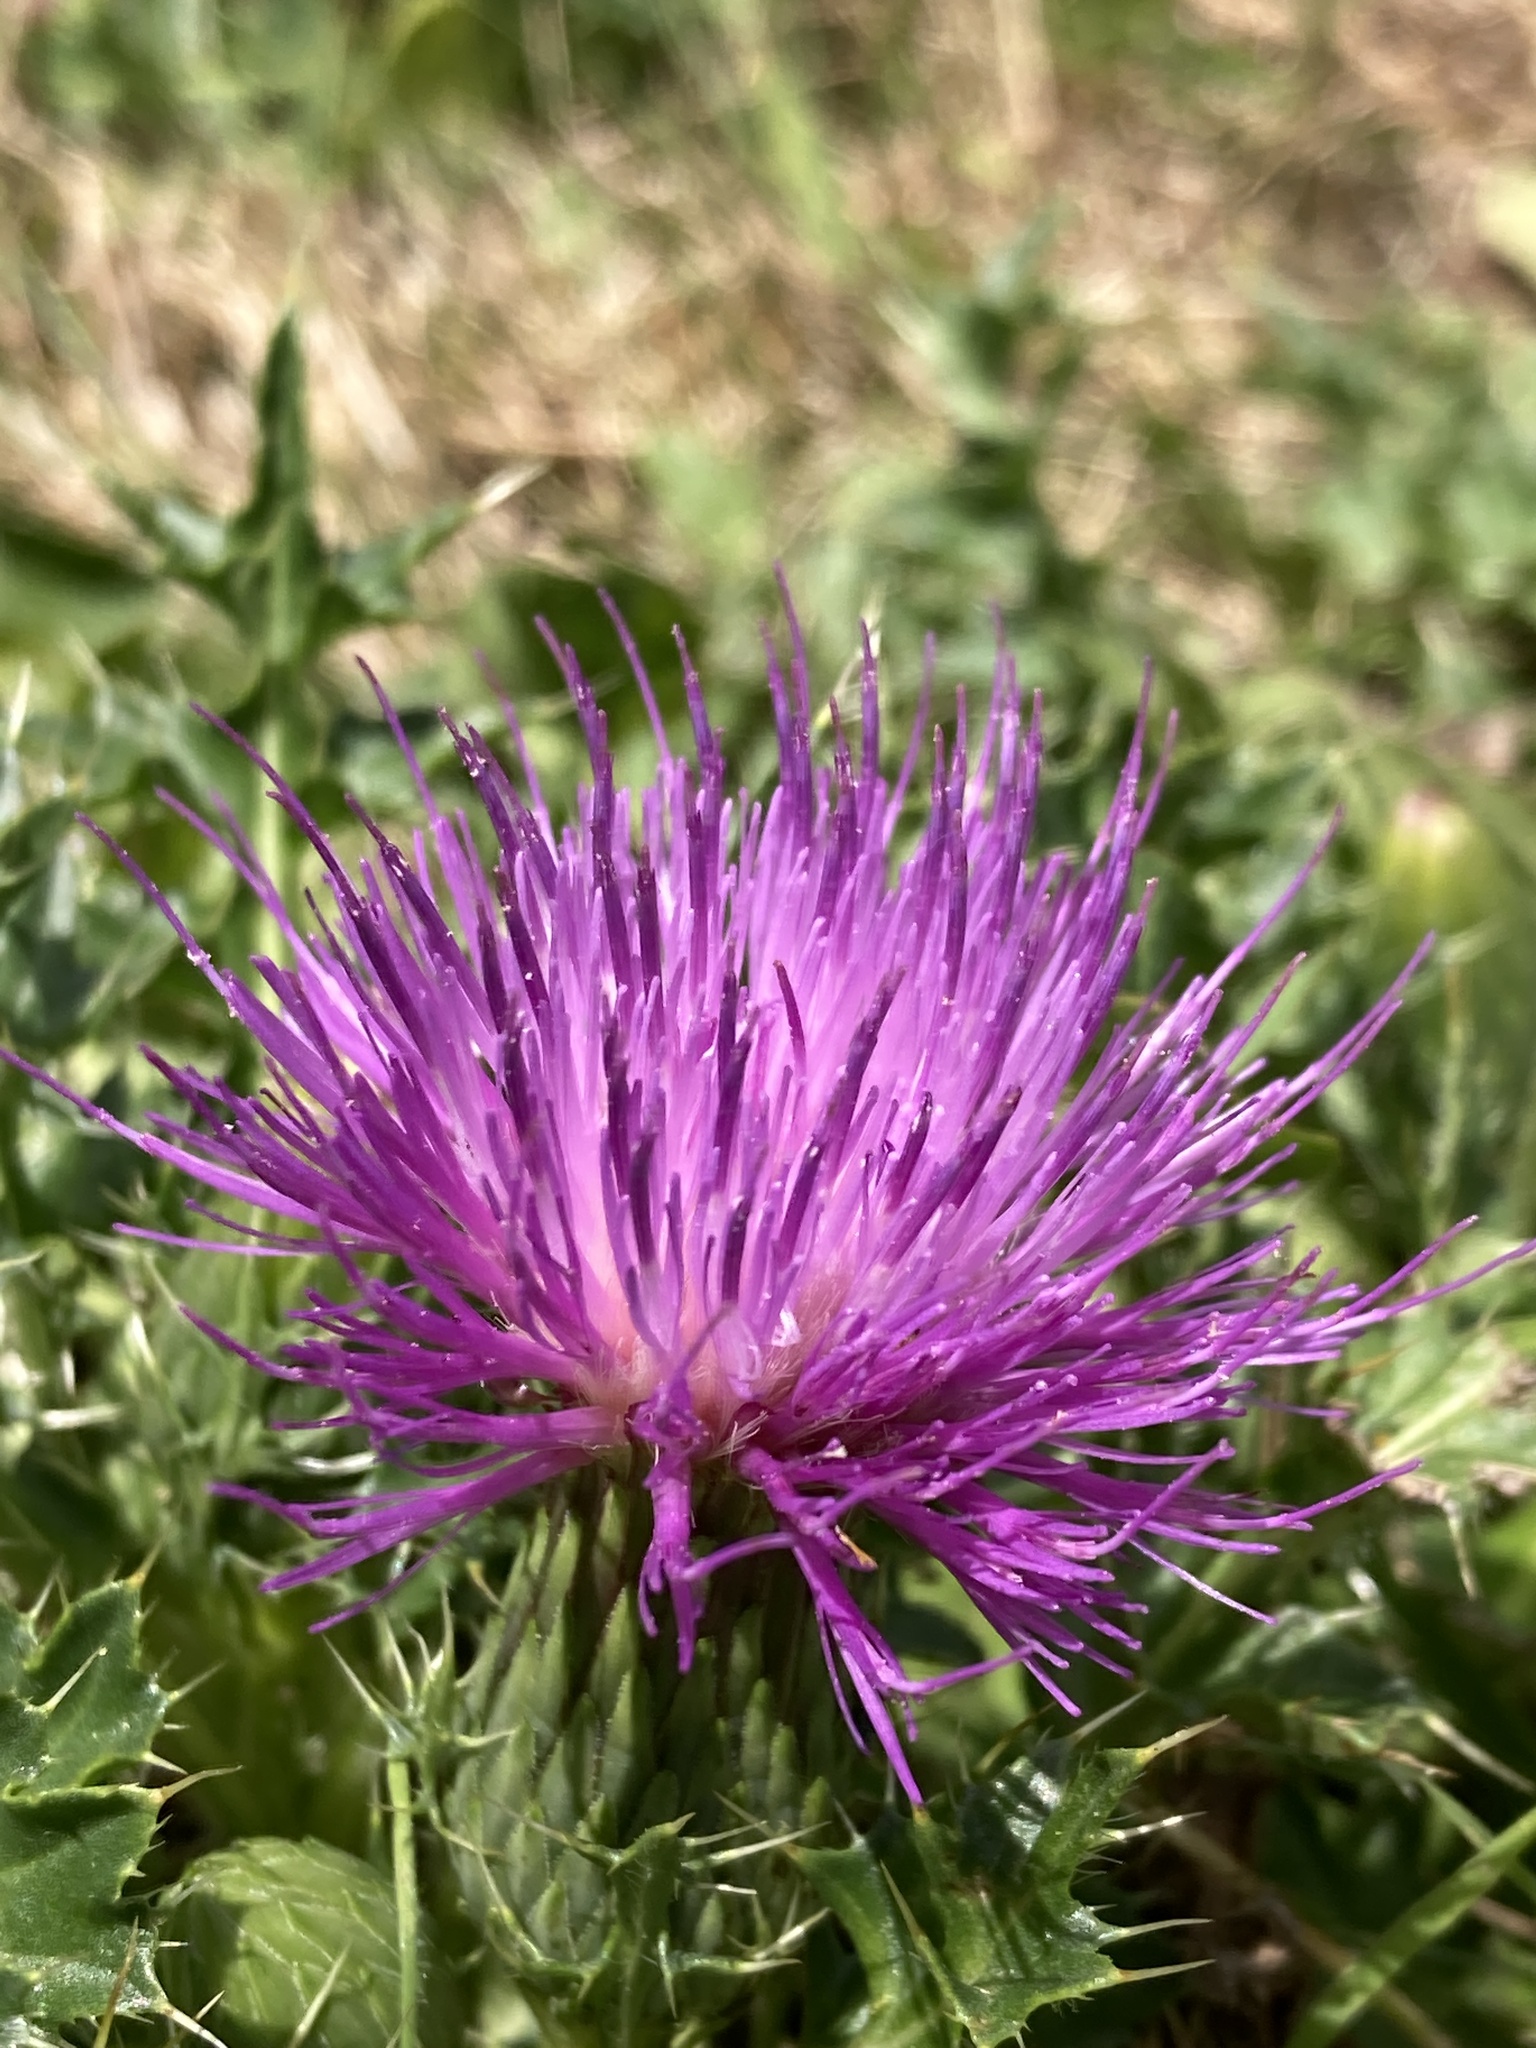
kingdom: Plantae
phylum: Tracheophyta
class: Magnoliopsida
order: Asterales
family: Asteraceae
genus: Cirsium
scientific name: Cirsium acaulon
